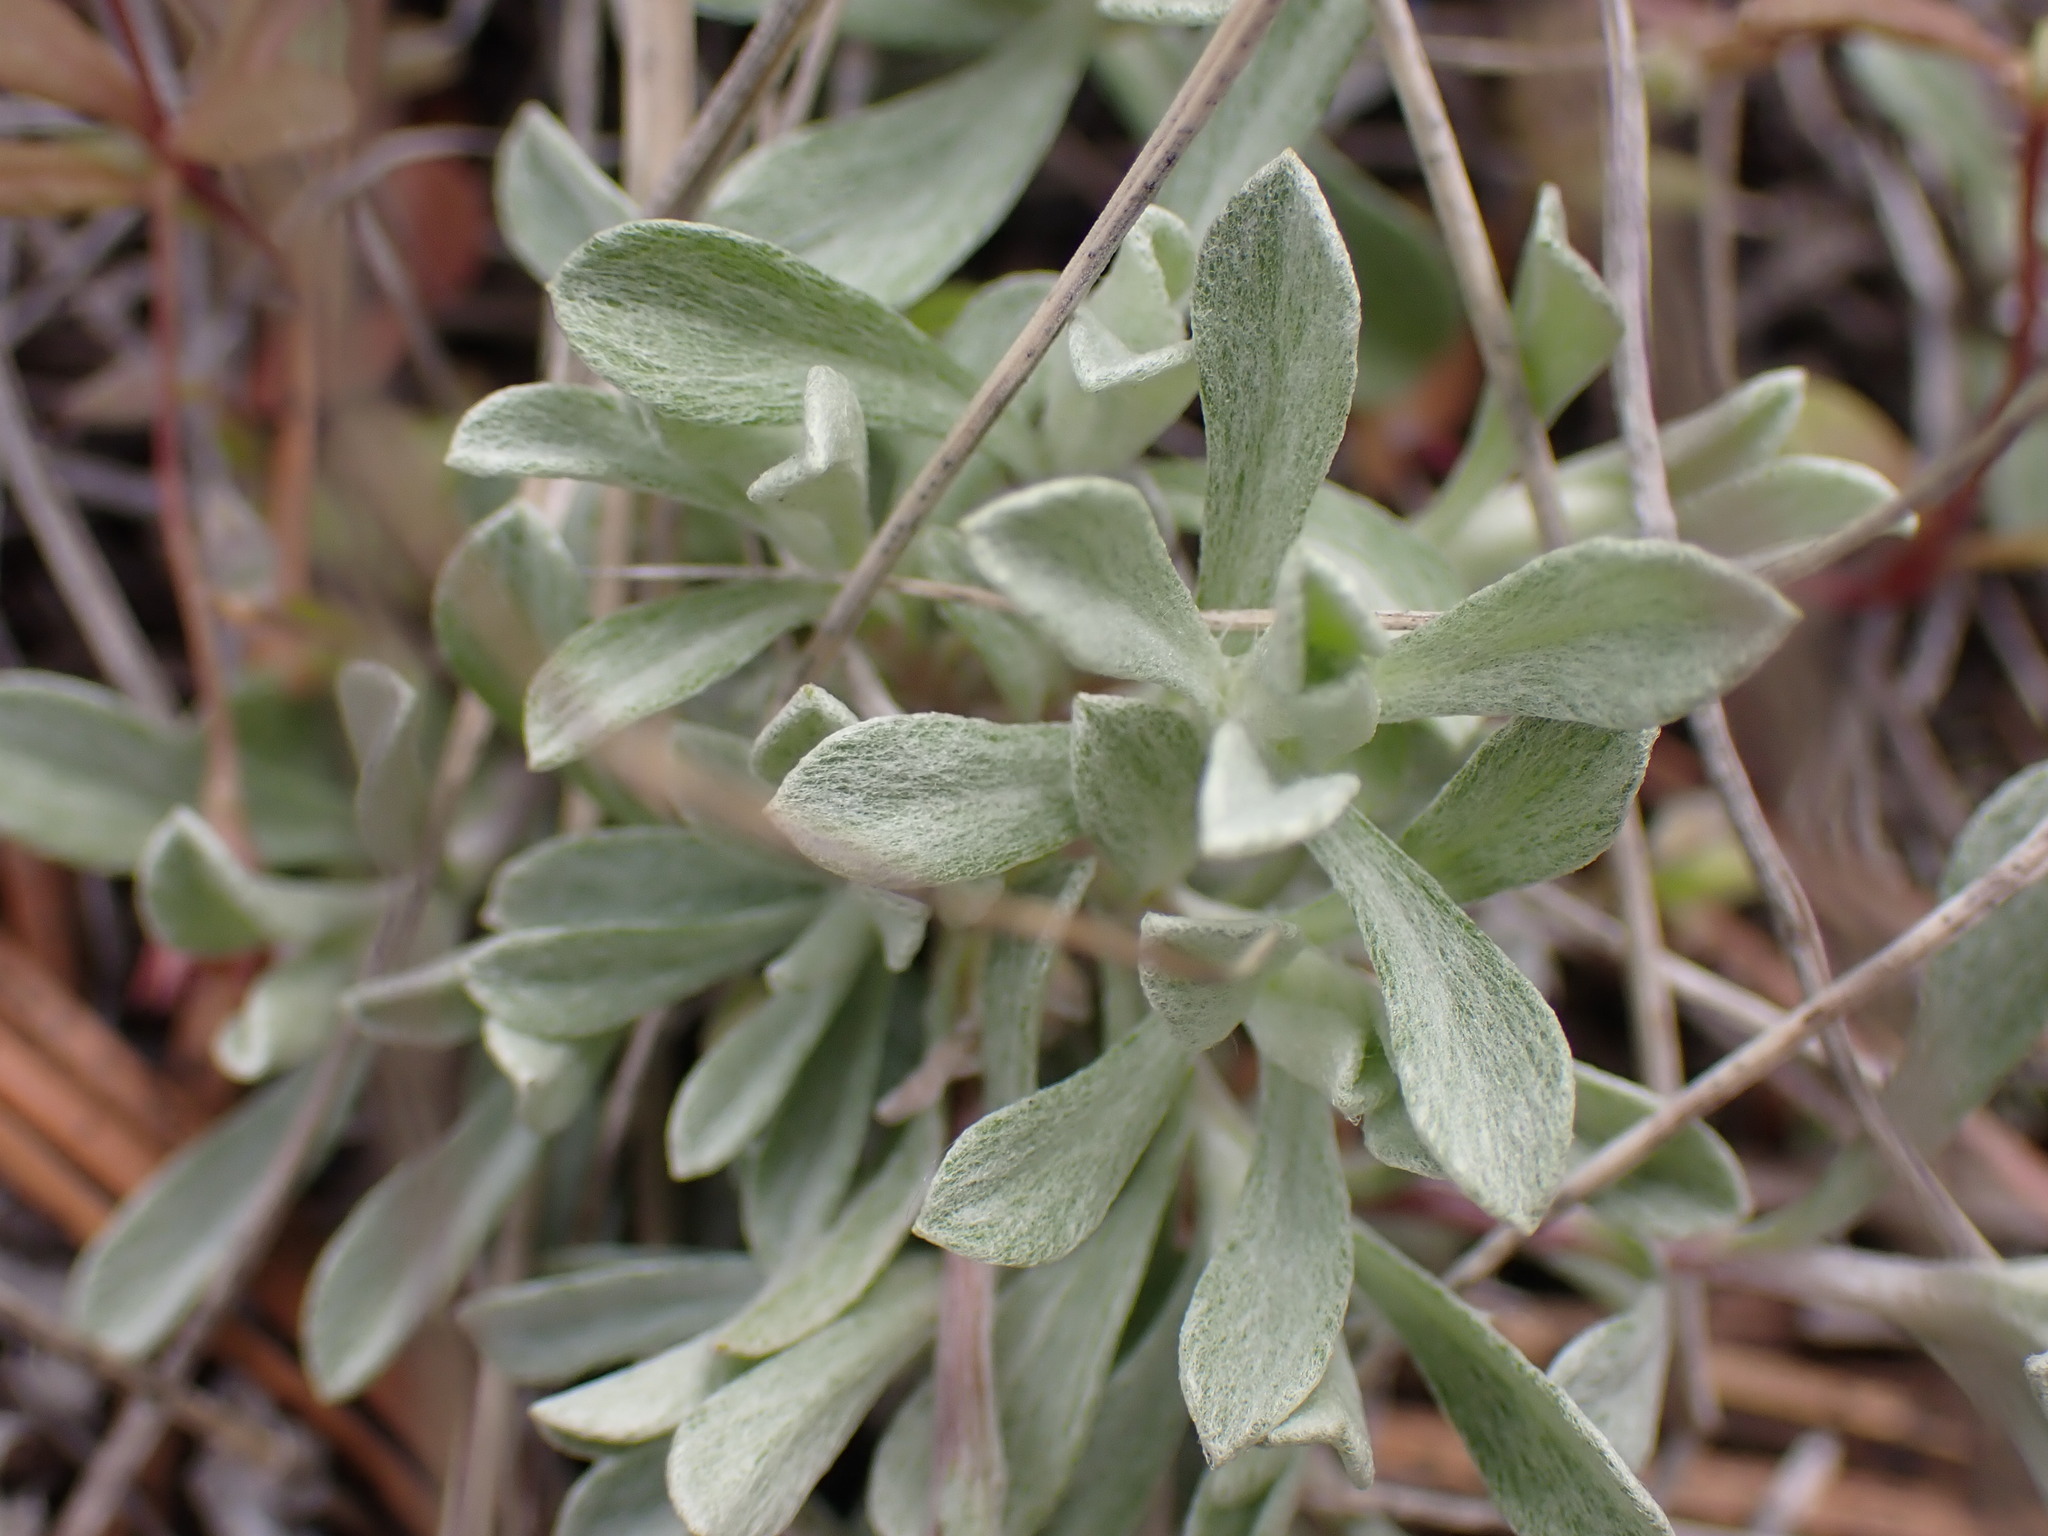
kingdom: Plantae
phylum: Tracheophyta
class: Magnoliopsida
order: Asterales
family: Asteraceae
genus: Antennaria
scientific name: Antennaria umbrinella
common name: Brown pussytoes
